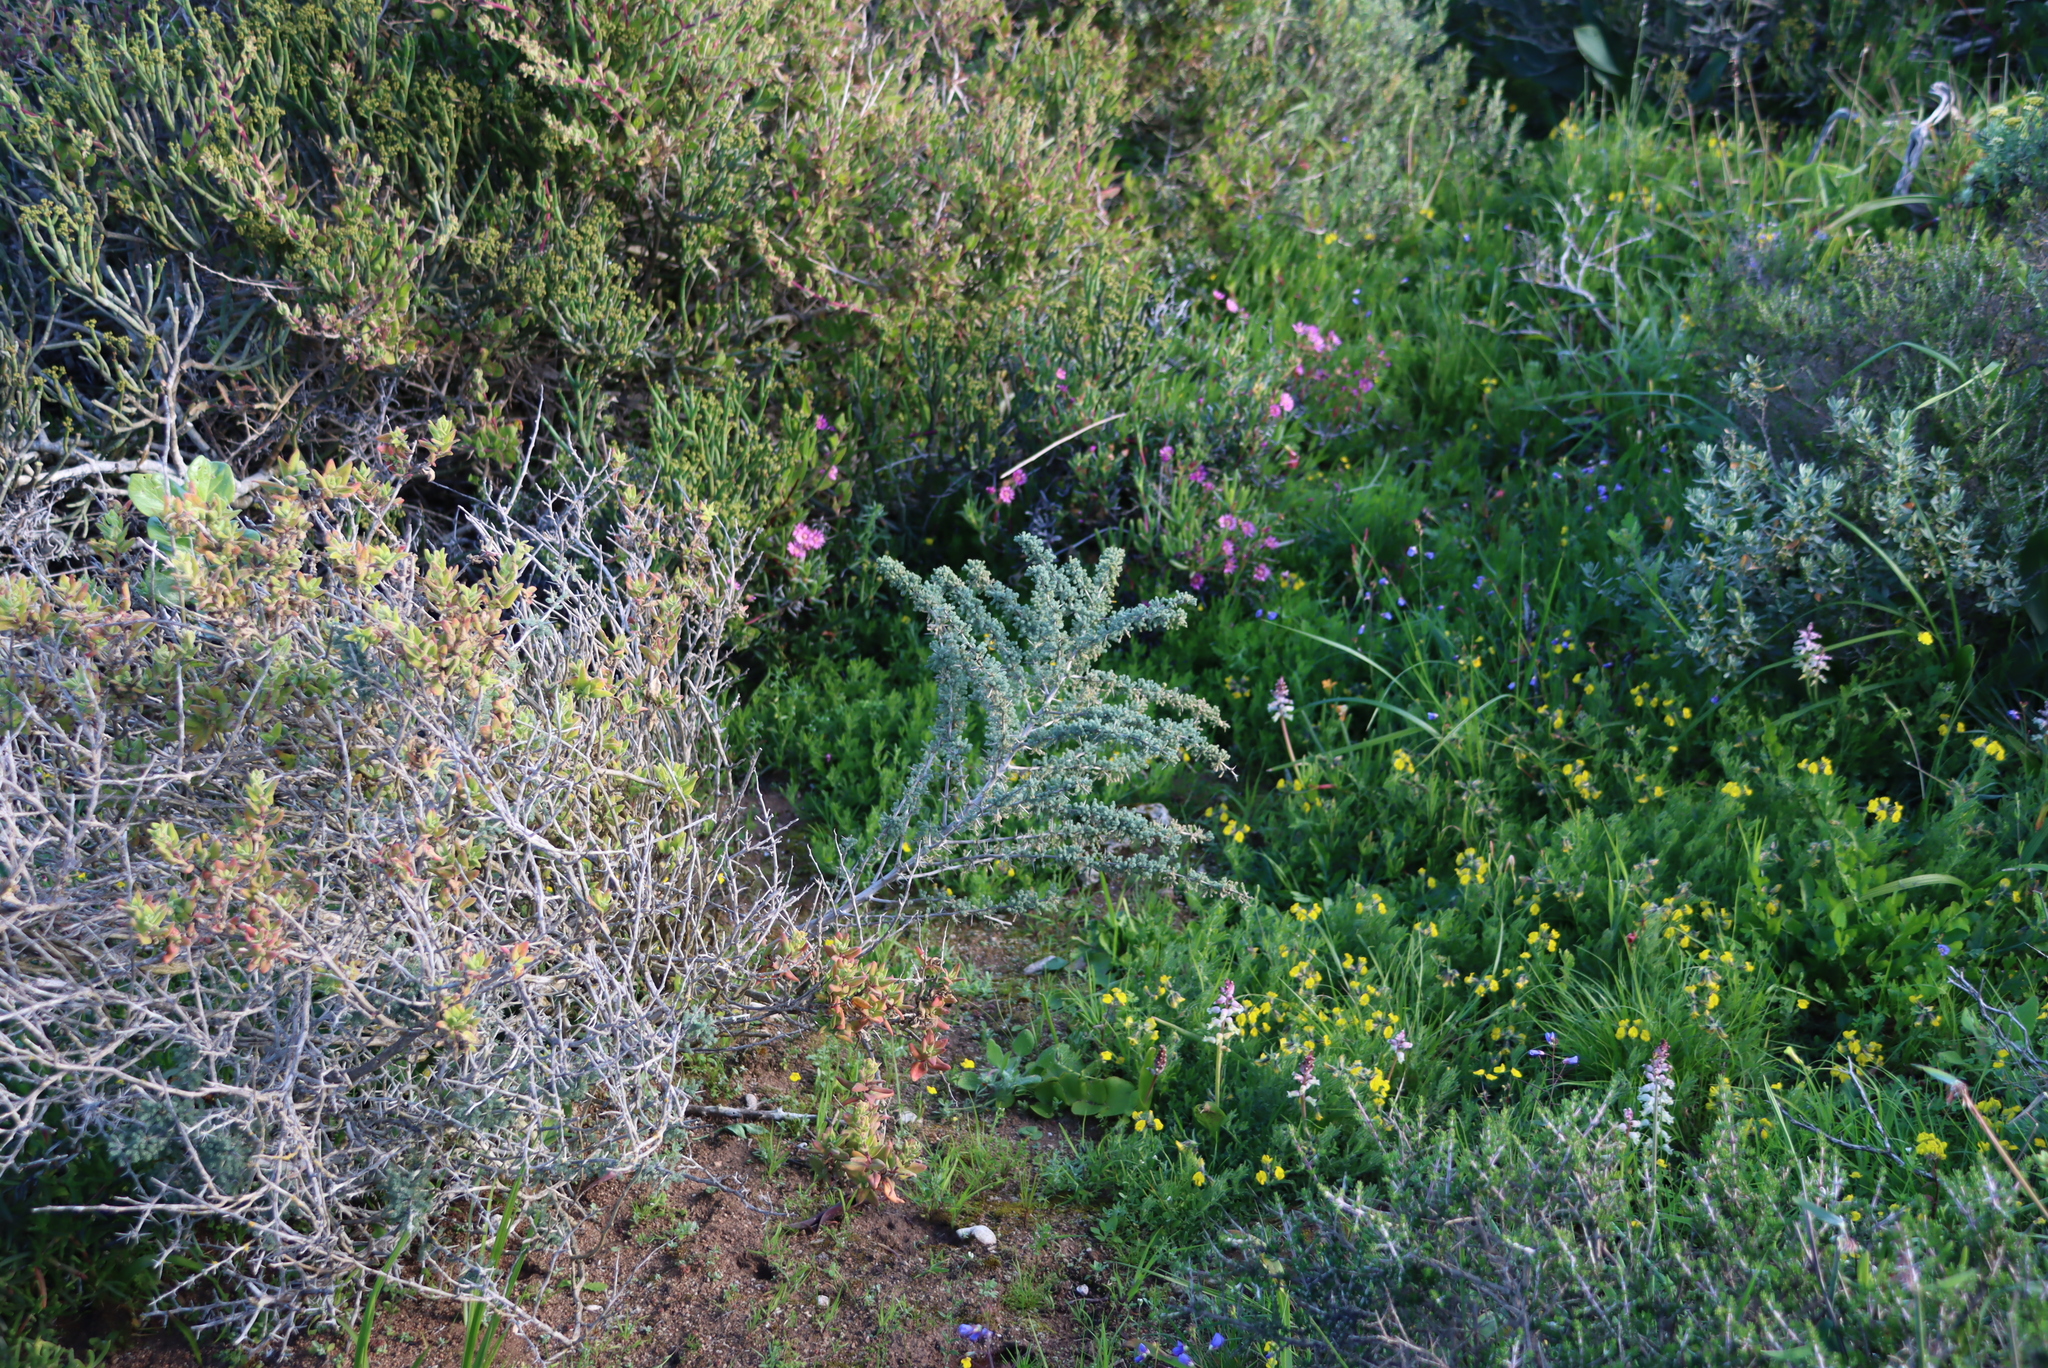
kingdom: Plantae
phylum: Tracheophyta
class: Liliopsida
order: Asparagales
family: Asparagaceae
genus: Asparagus
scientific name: Asparagus capensis
